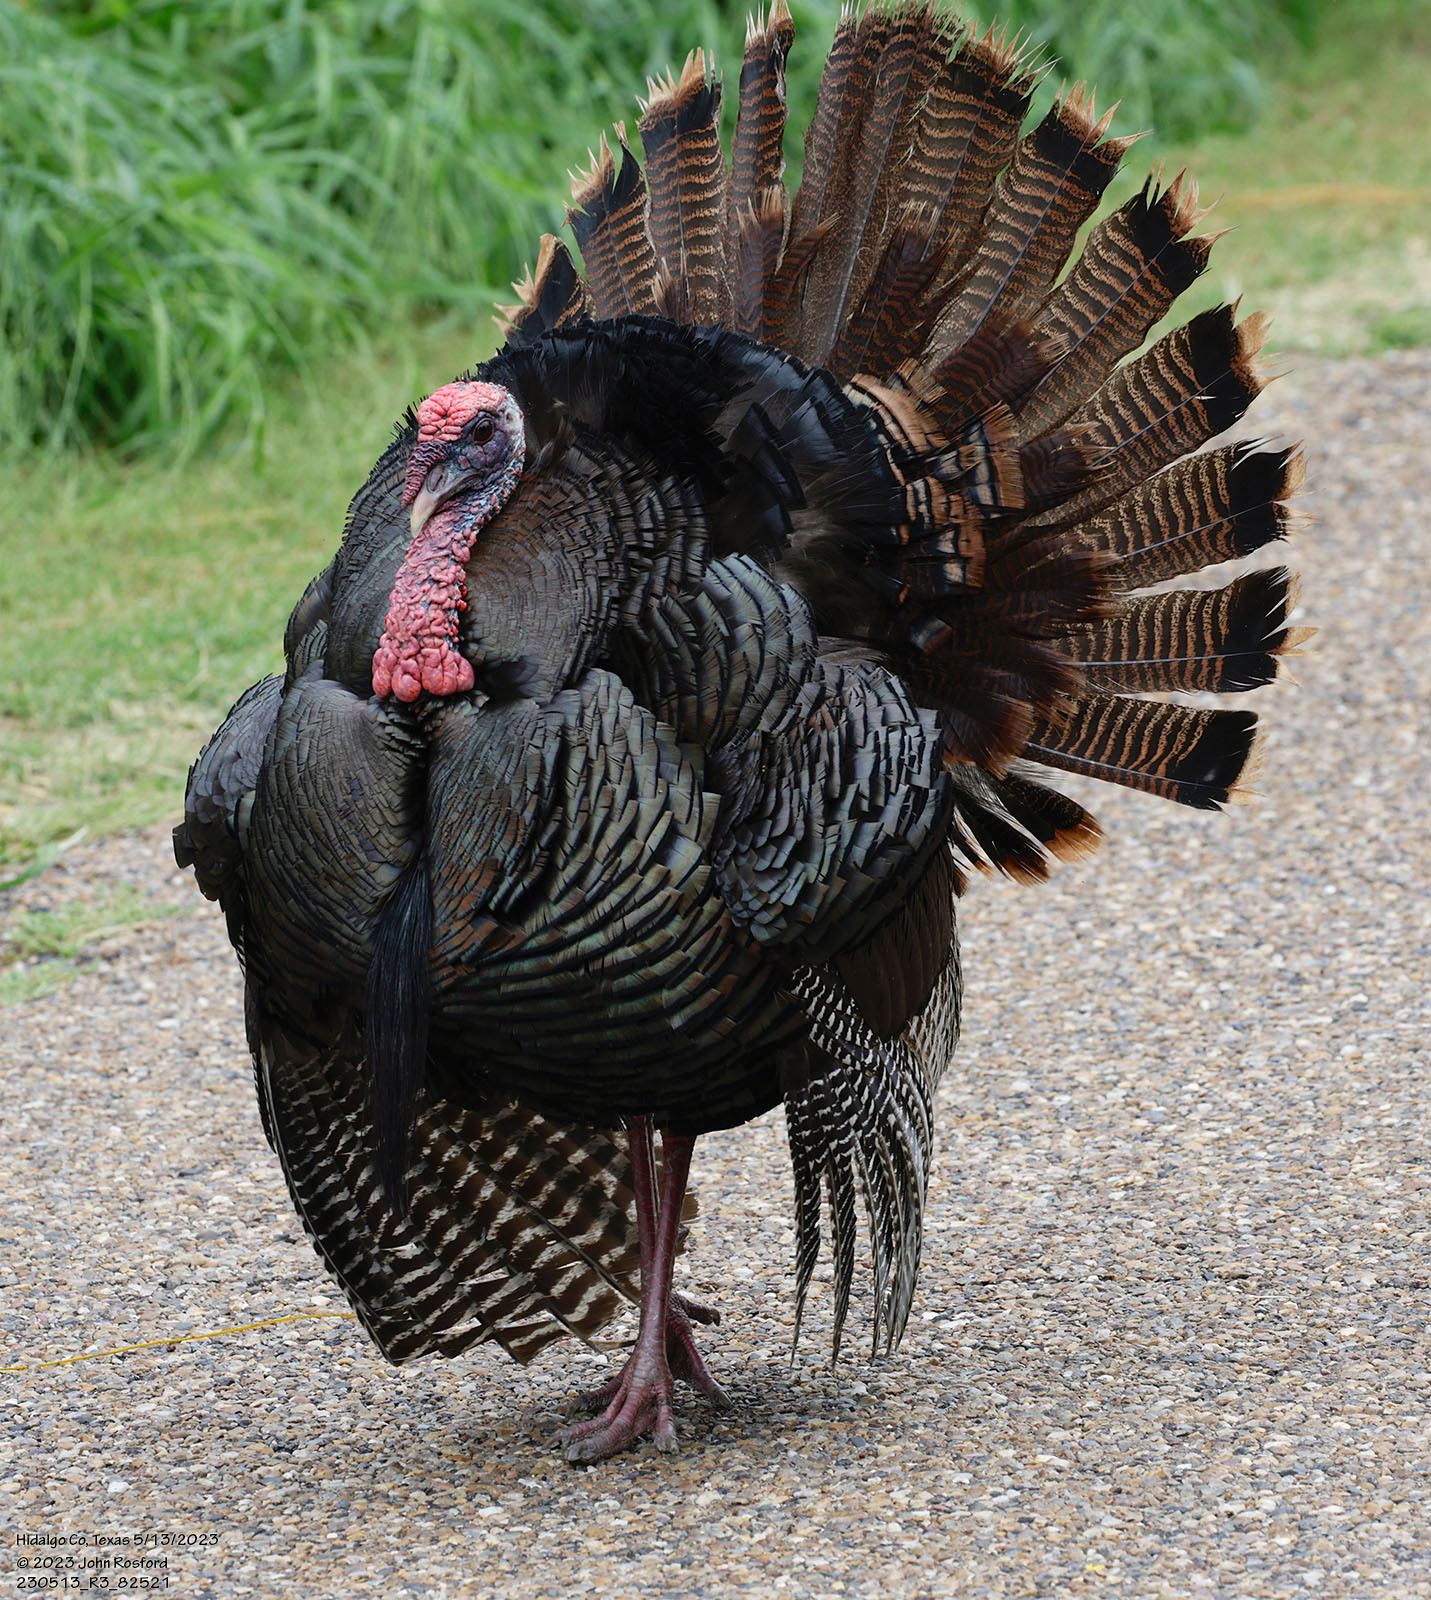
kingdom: Animalia
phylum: Chordata
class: Aves
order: Galliformes
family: Phasianidae
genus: Meleagris
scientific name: Meleagris gallopavo
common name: Wild turkey
